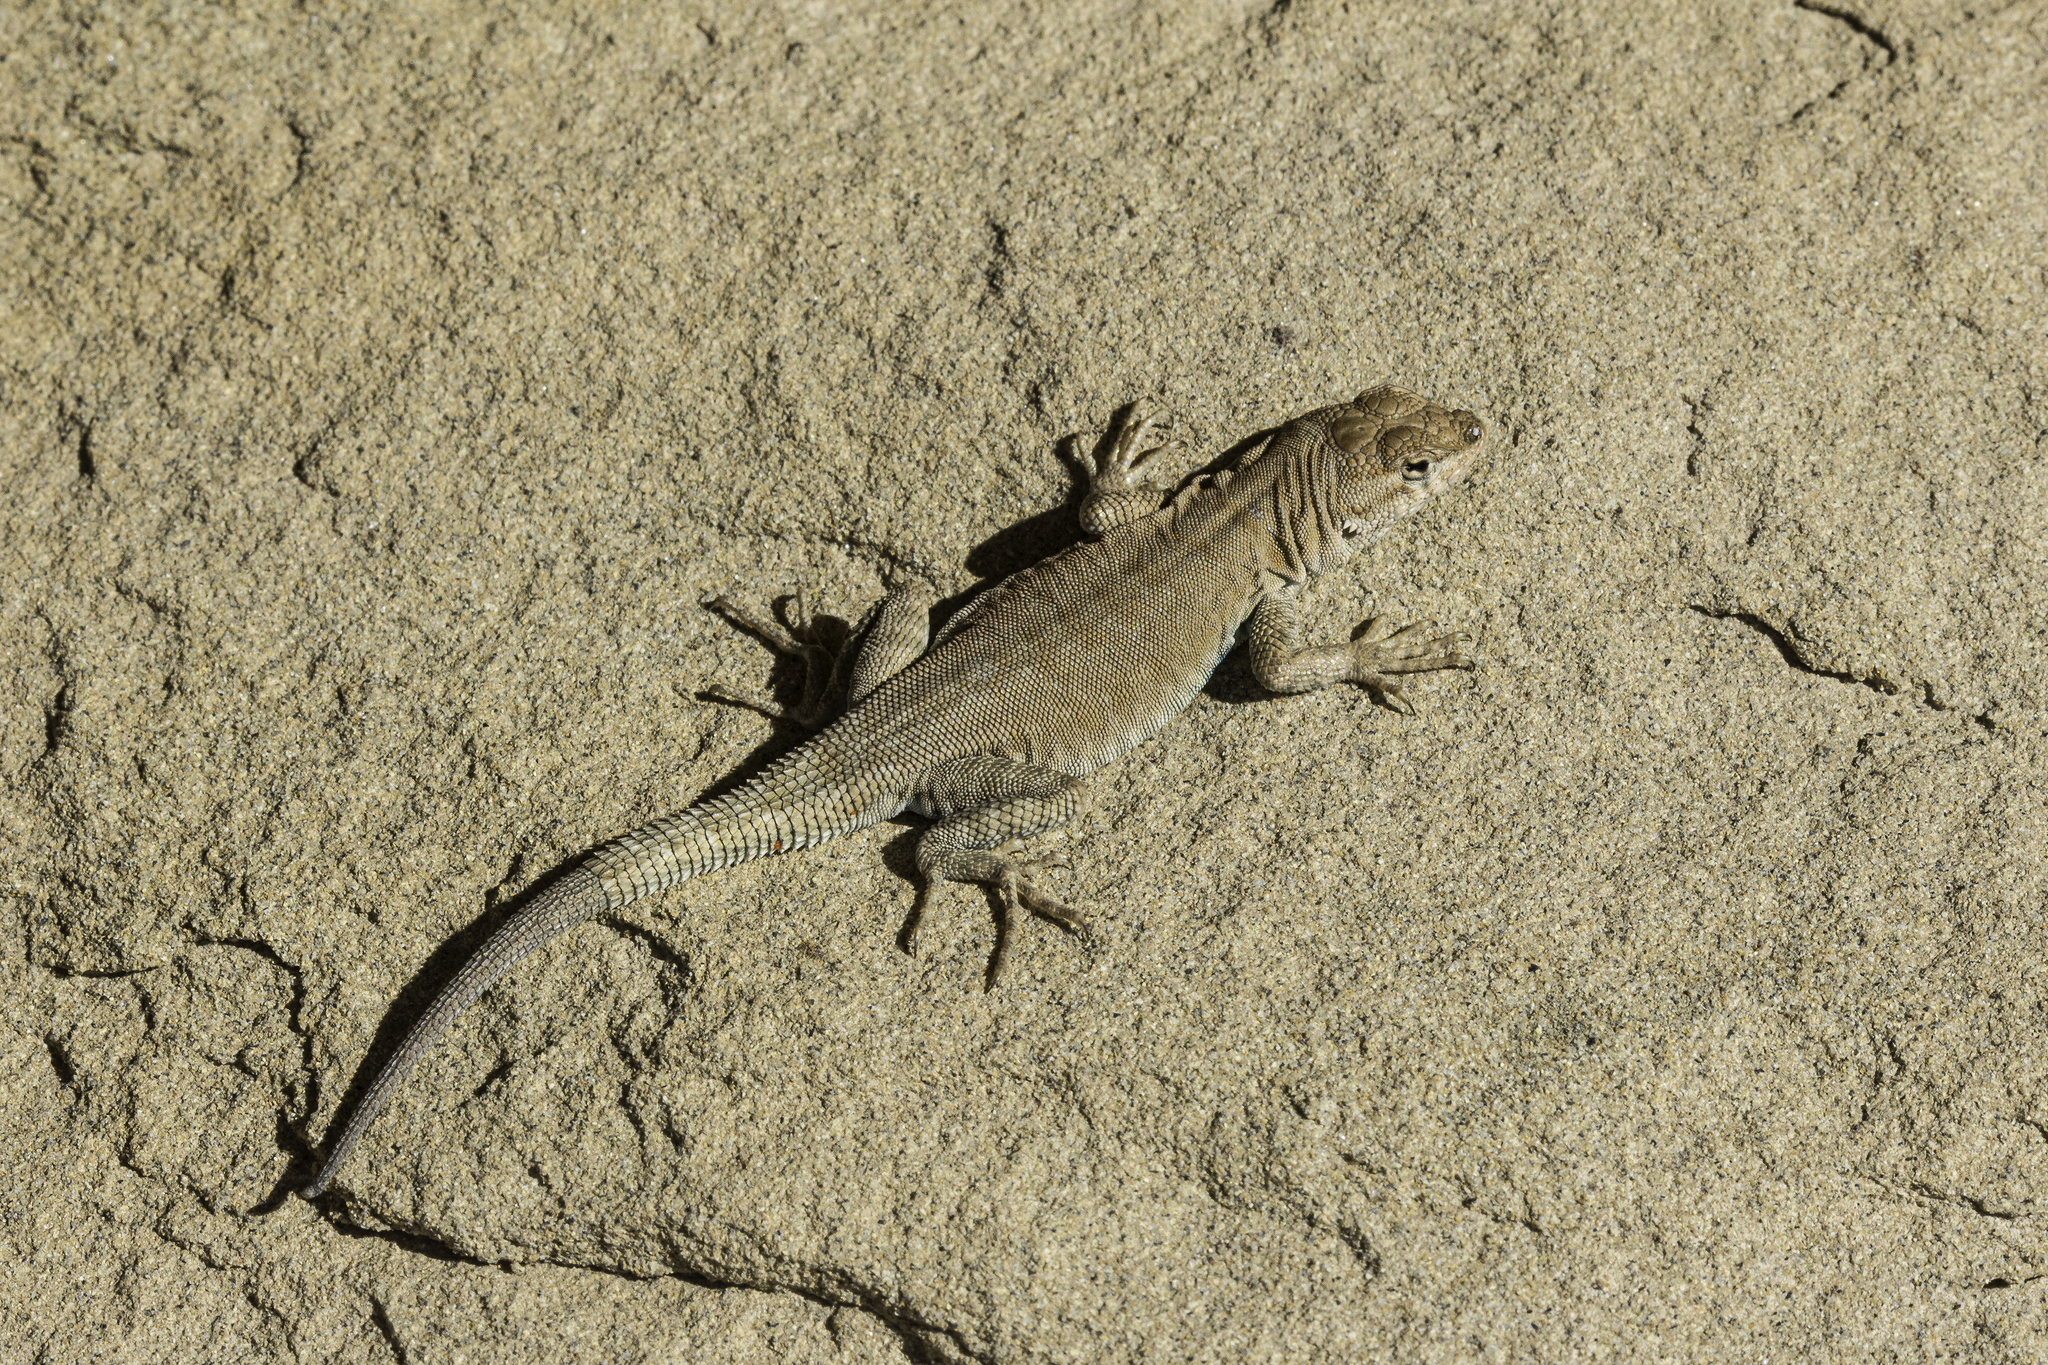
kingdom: Animalia
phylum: Chordata
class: Squamata
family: Phrynosomatidae
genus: Uta
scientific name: Uta stansburiana
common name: Side-blotched lizard
